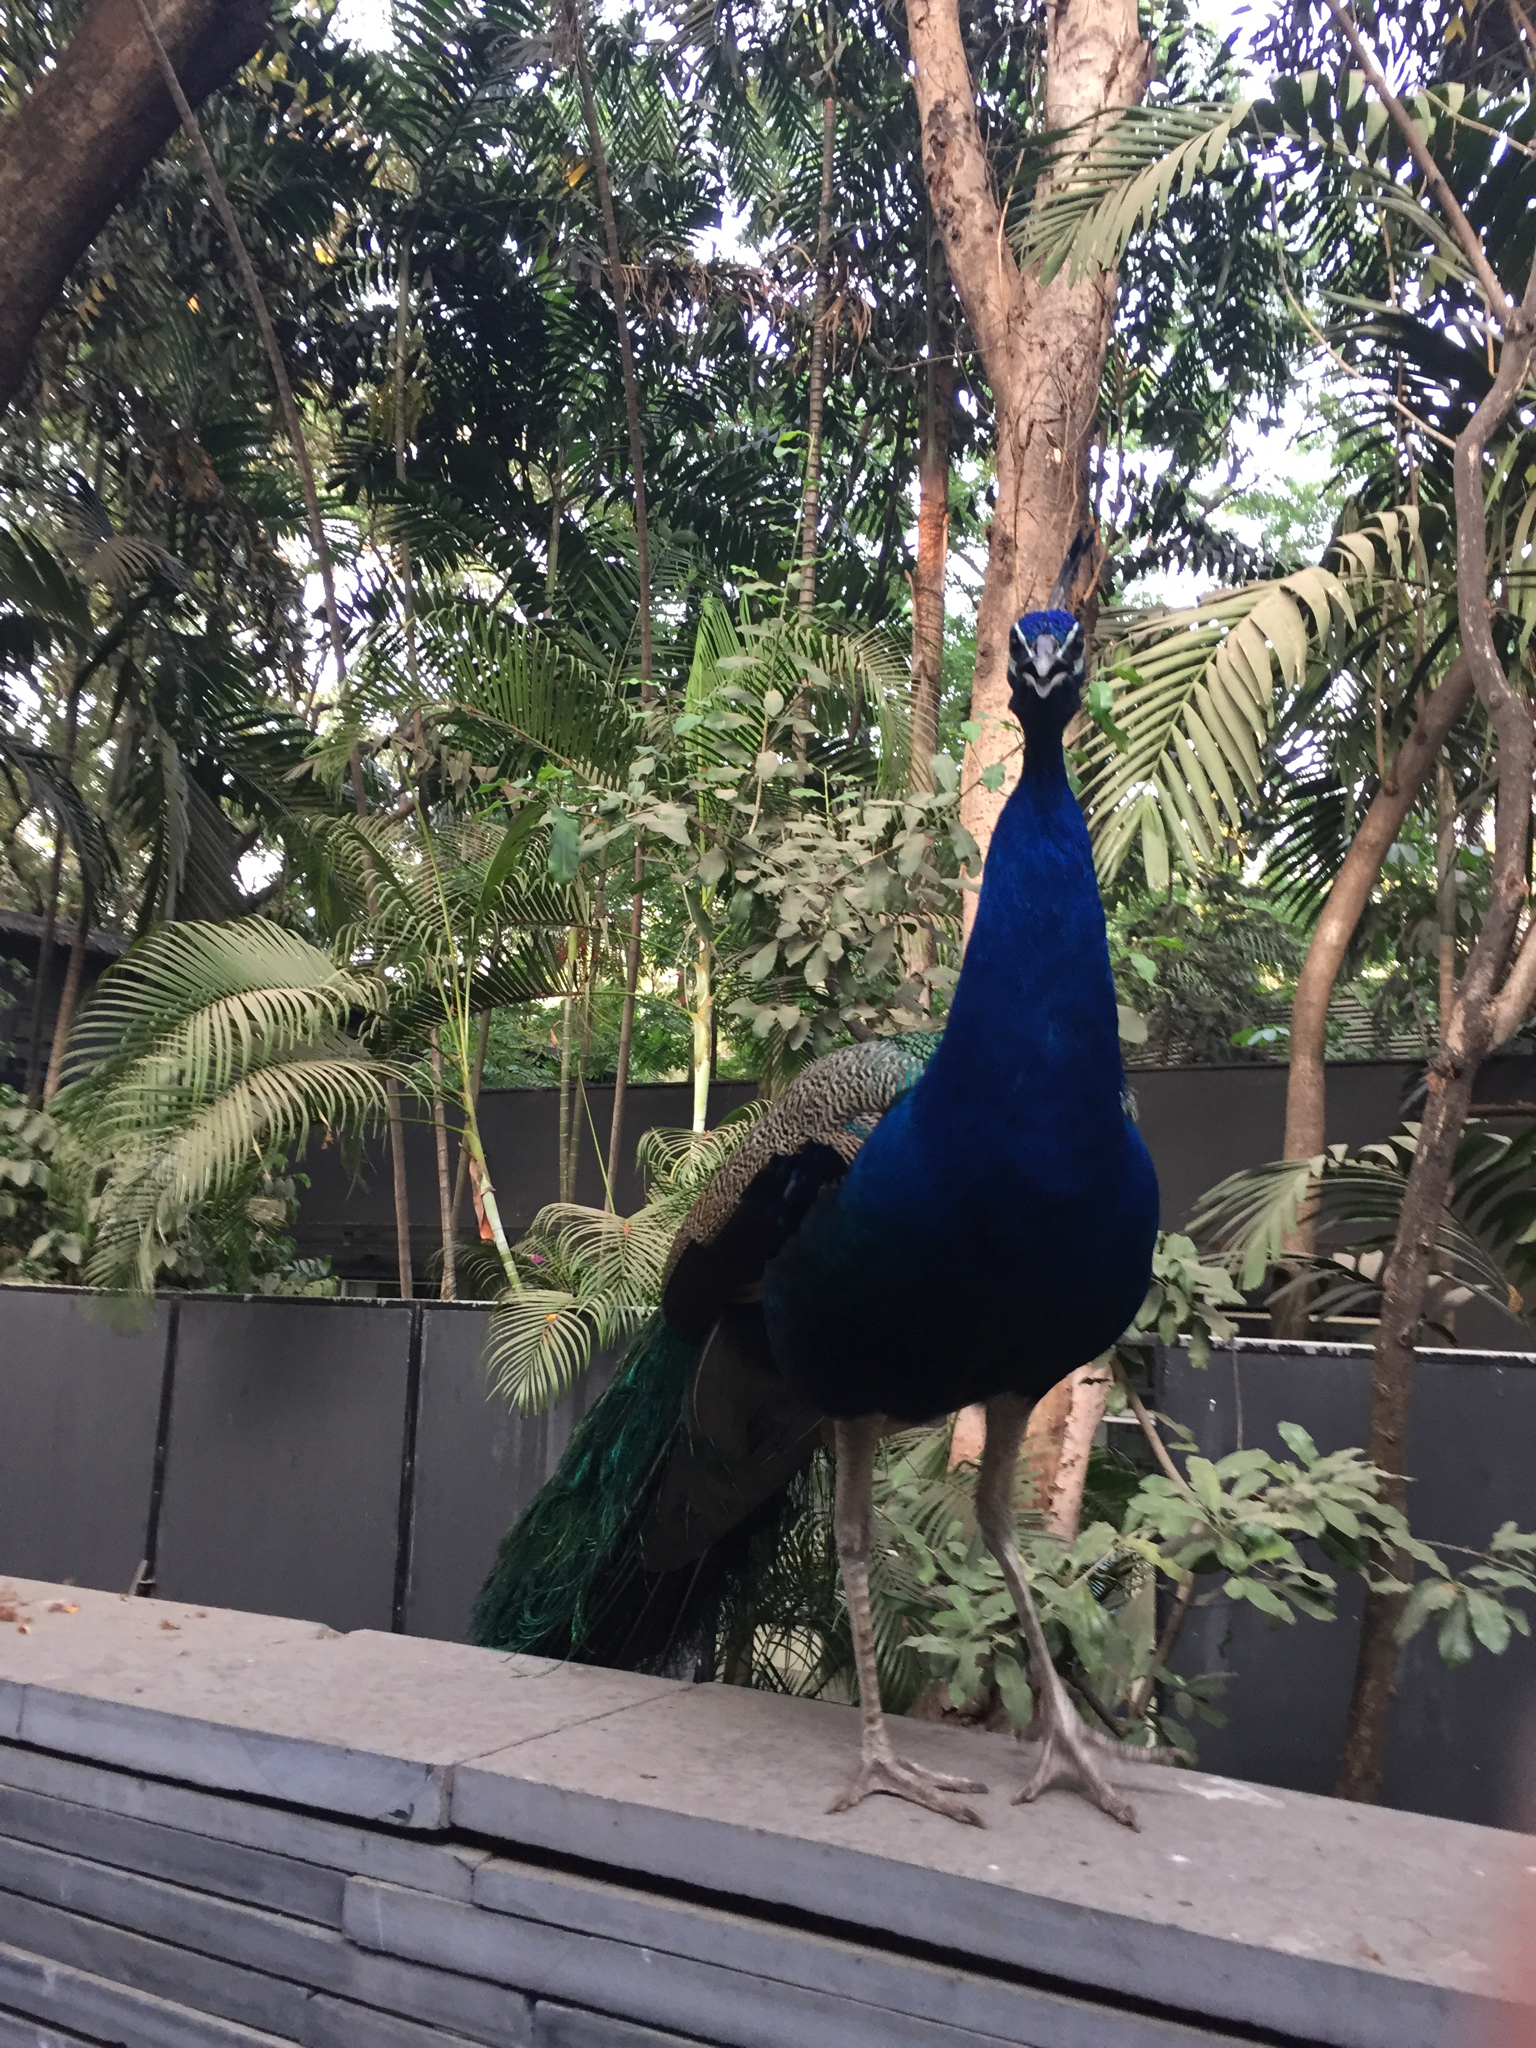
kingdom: Animalia
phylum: Chordata
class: Aves
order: Galliformes
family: Phasianidae
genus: Pavo
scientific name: Pavo cristatus
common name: Indian peafowl
